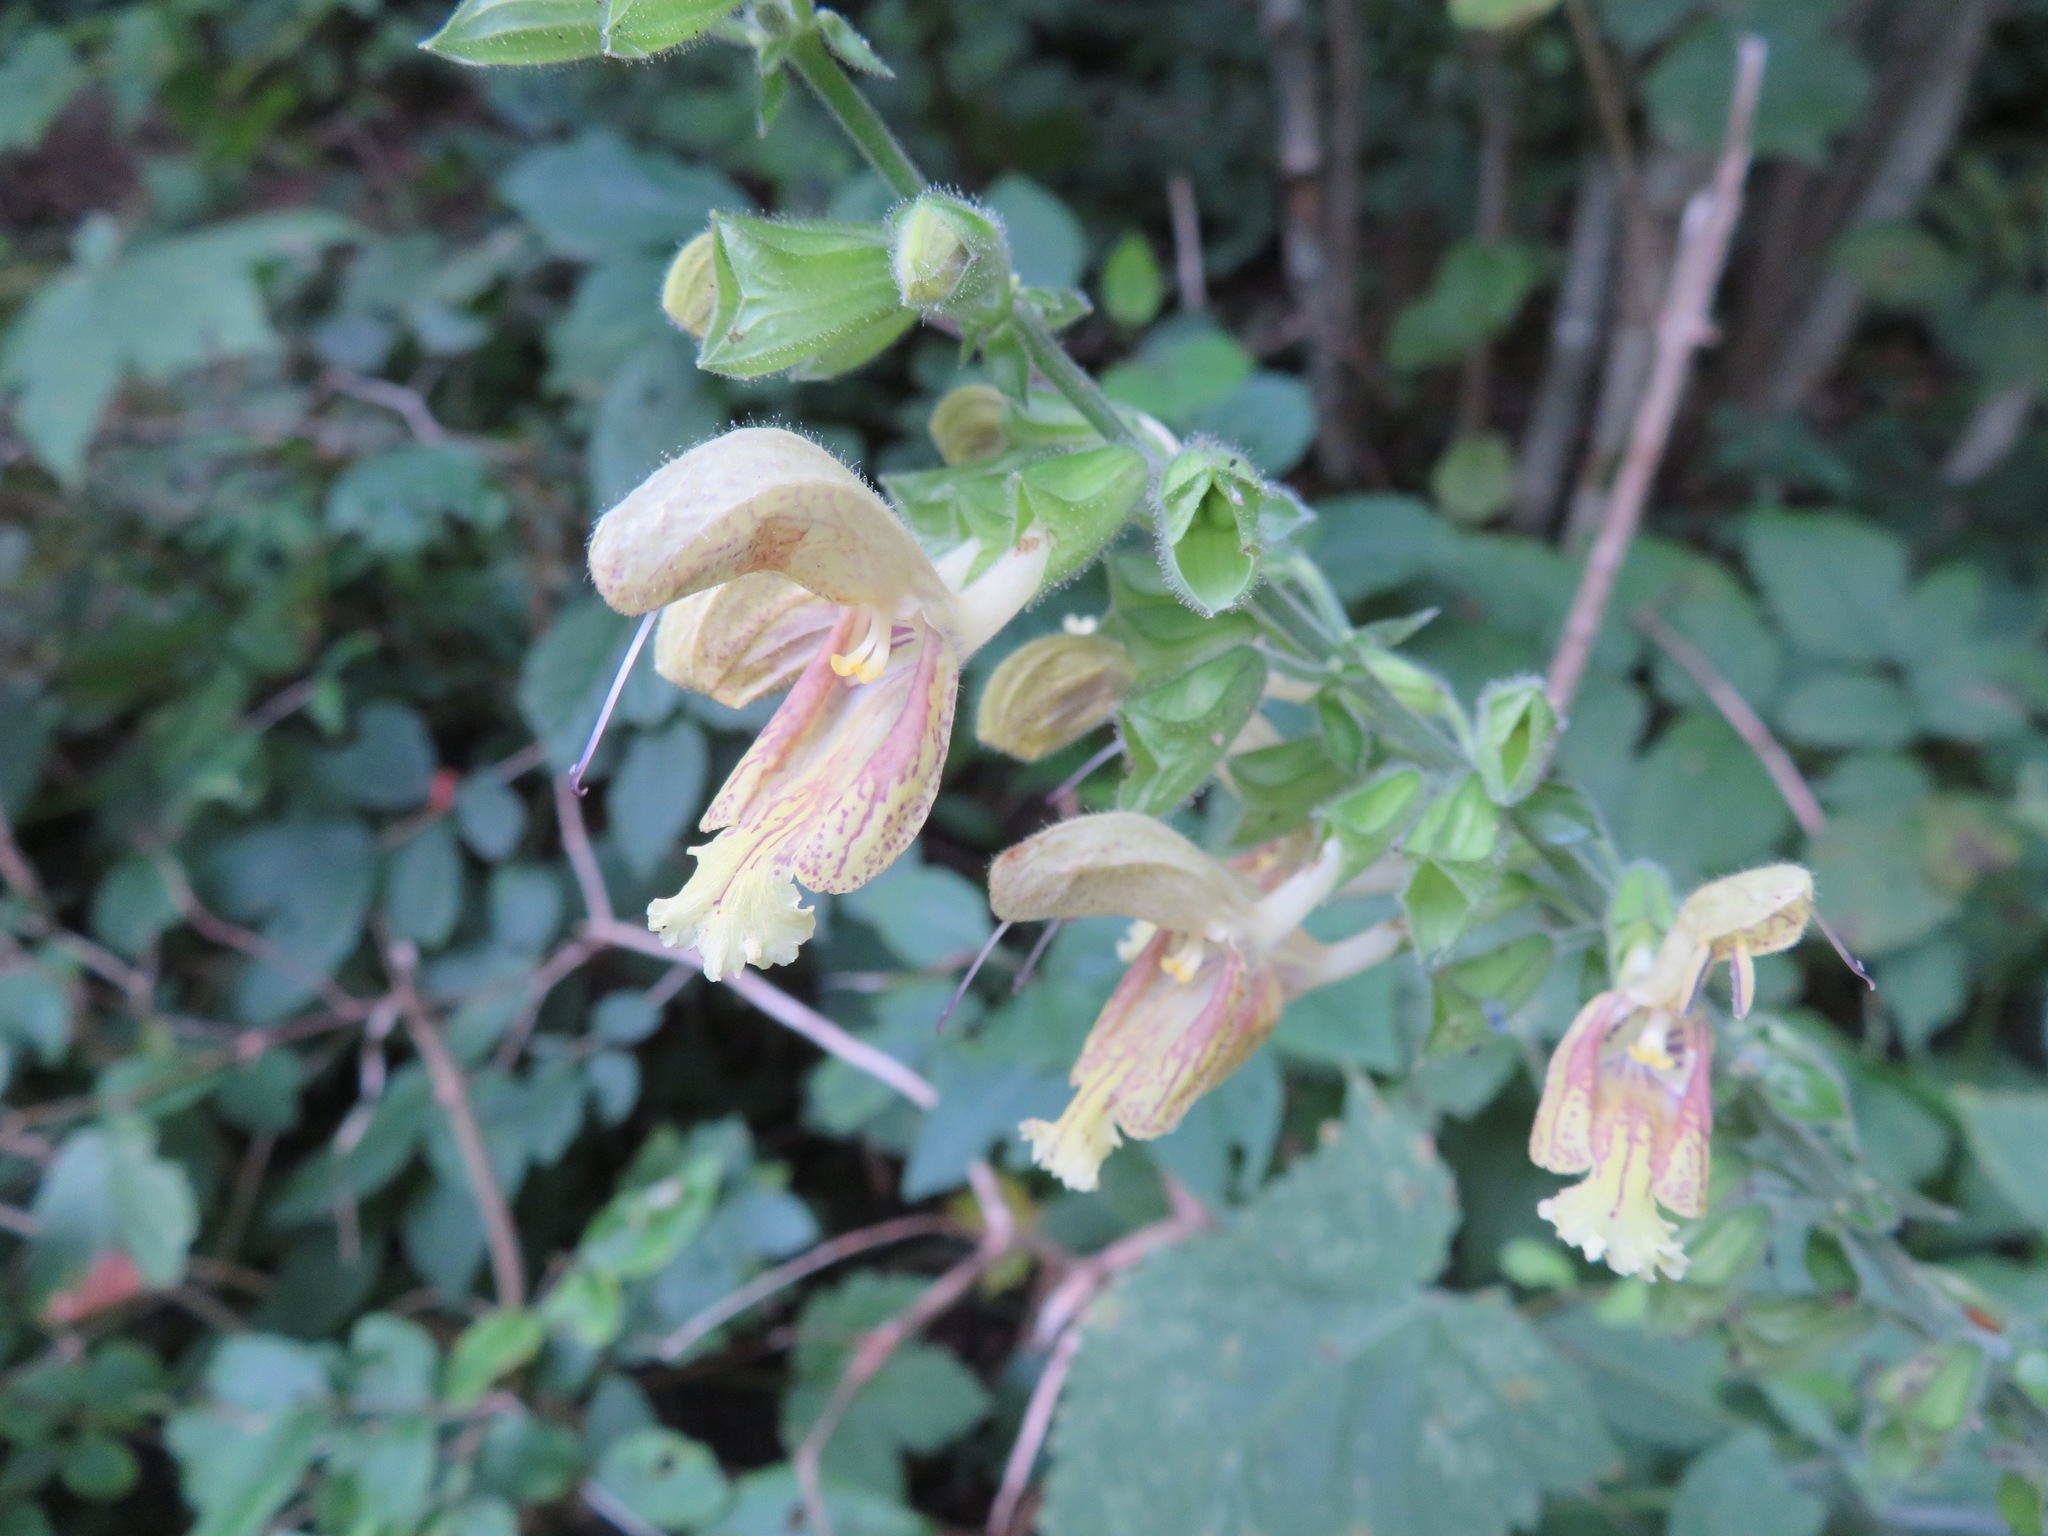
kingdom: Plantae
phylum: Tracheophyta
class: Magnoliopsida
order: Lamiales
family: Lamiaceae
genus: Salvia
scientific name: Salvia glutinosa
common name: Sticky clary
